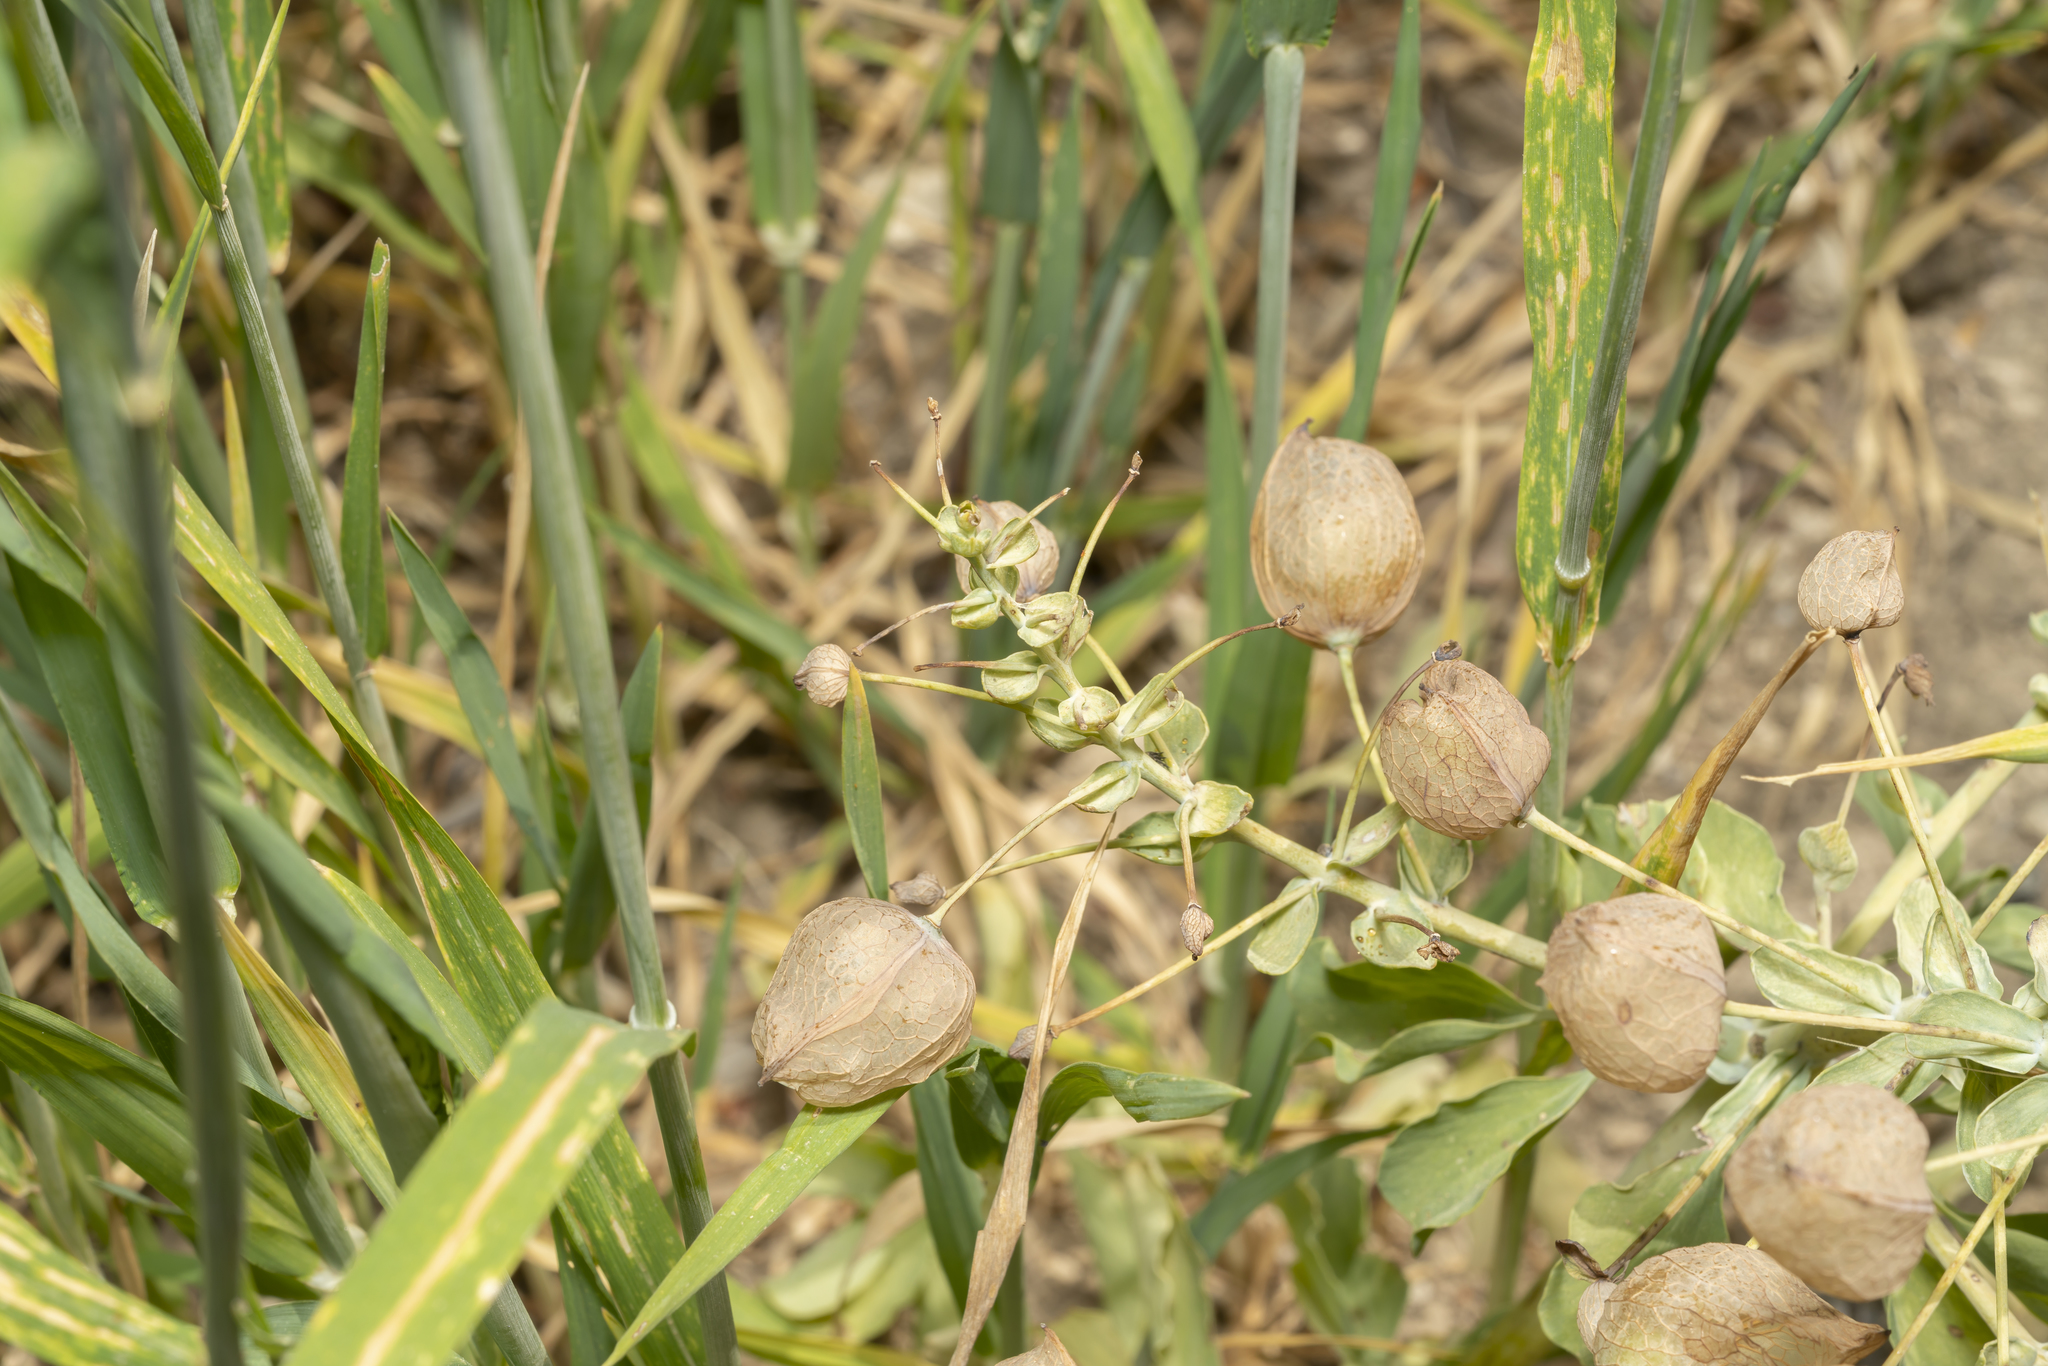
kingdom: Plantae
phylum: Tracheophyta
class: Magnoliopsida
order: Ranunculales
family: Berberidaceae
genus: Leontice
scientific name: Leontice leontopetalum
